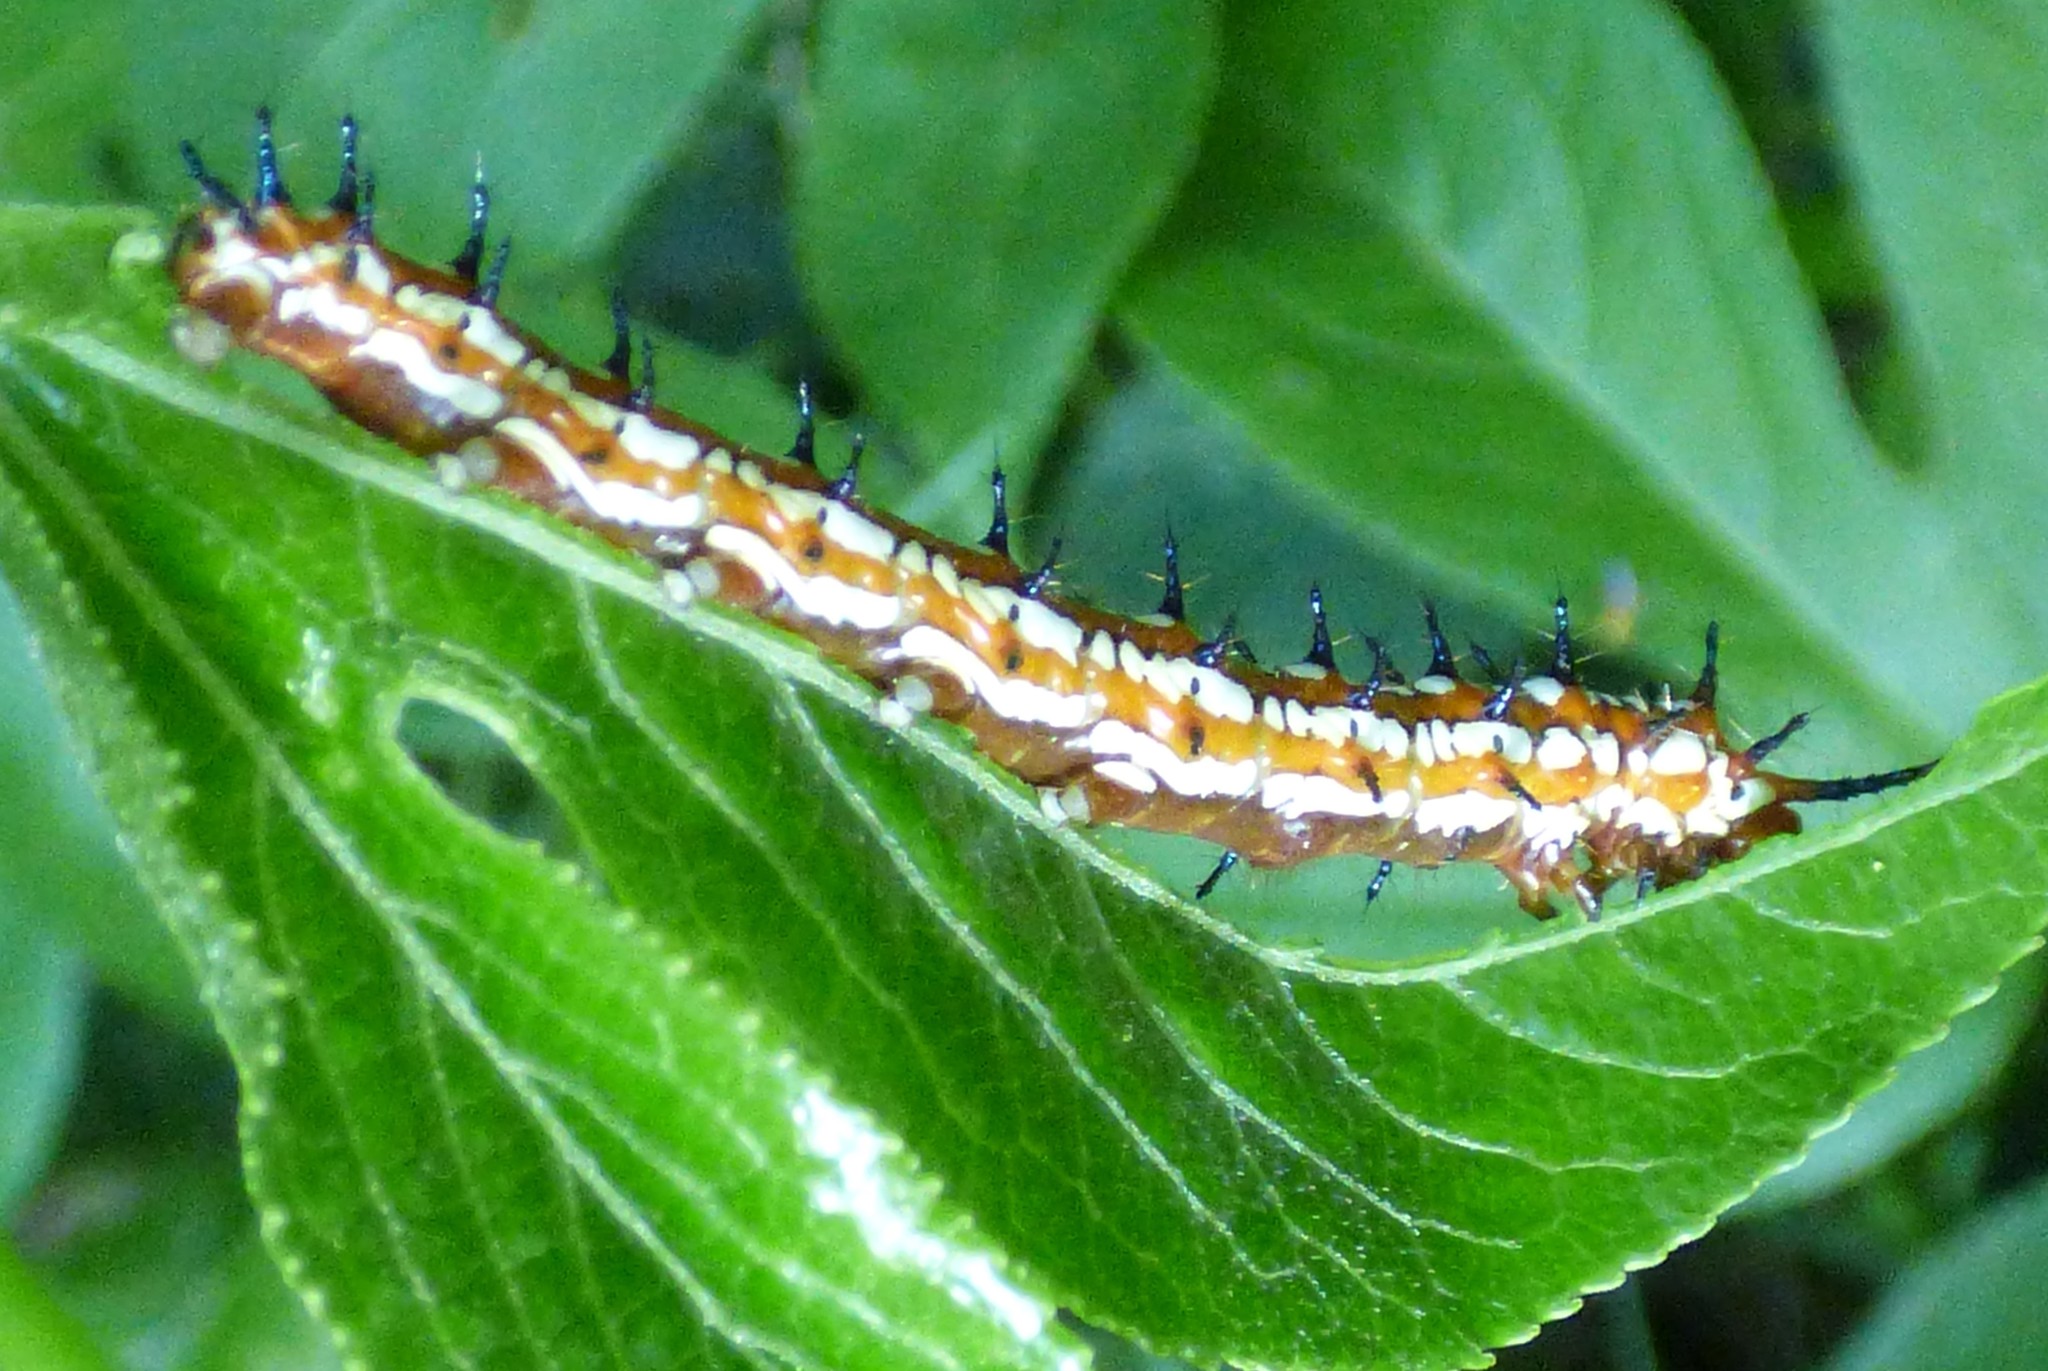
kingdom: Animalia
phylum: Arthropoda
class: Insecta
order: Lepidoptera
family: Nymphalidae
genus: Euptoieta
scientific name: Euptoieta claudia
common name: Variegated fritillary
